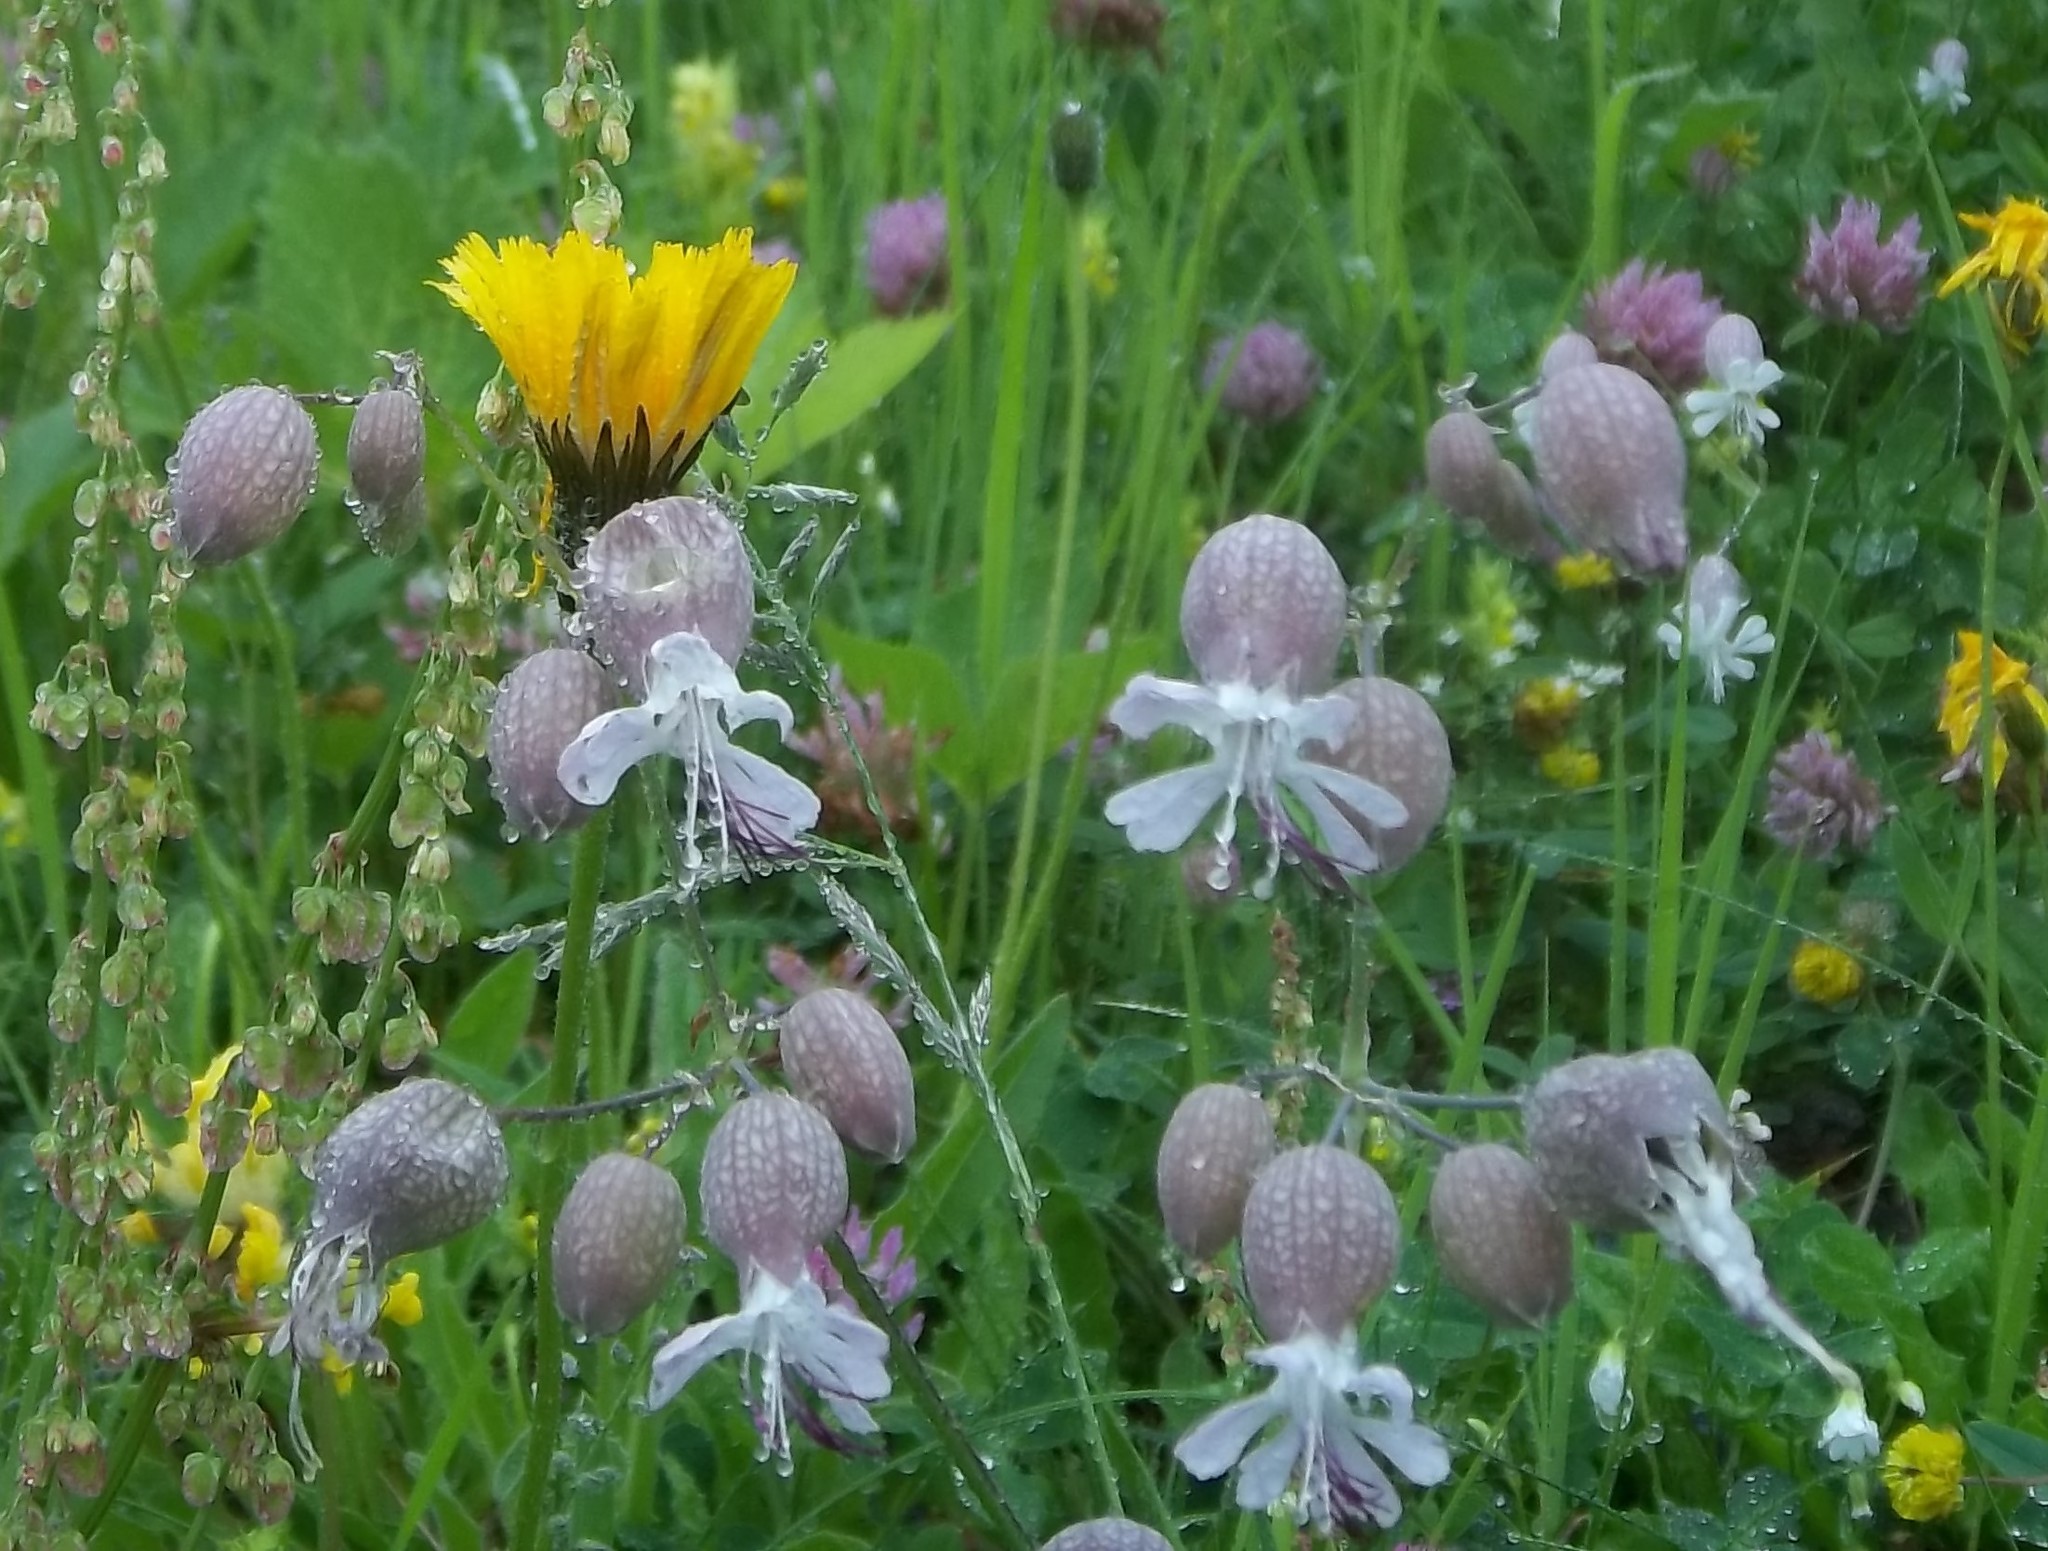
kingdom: Plantae
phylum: Tracheophyta
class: Magnoliopsida
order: Caryophyllales
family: Caryophyllaceae
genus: Silene
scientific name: Silene vulgaris
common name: Bladder campion
